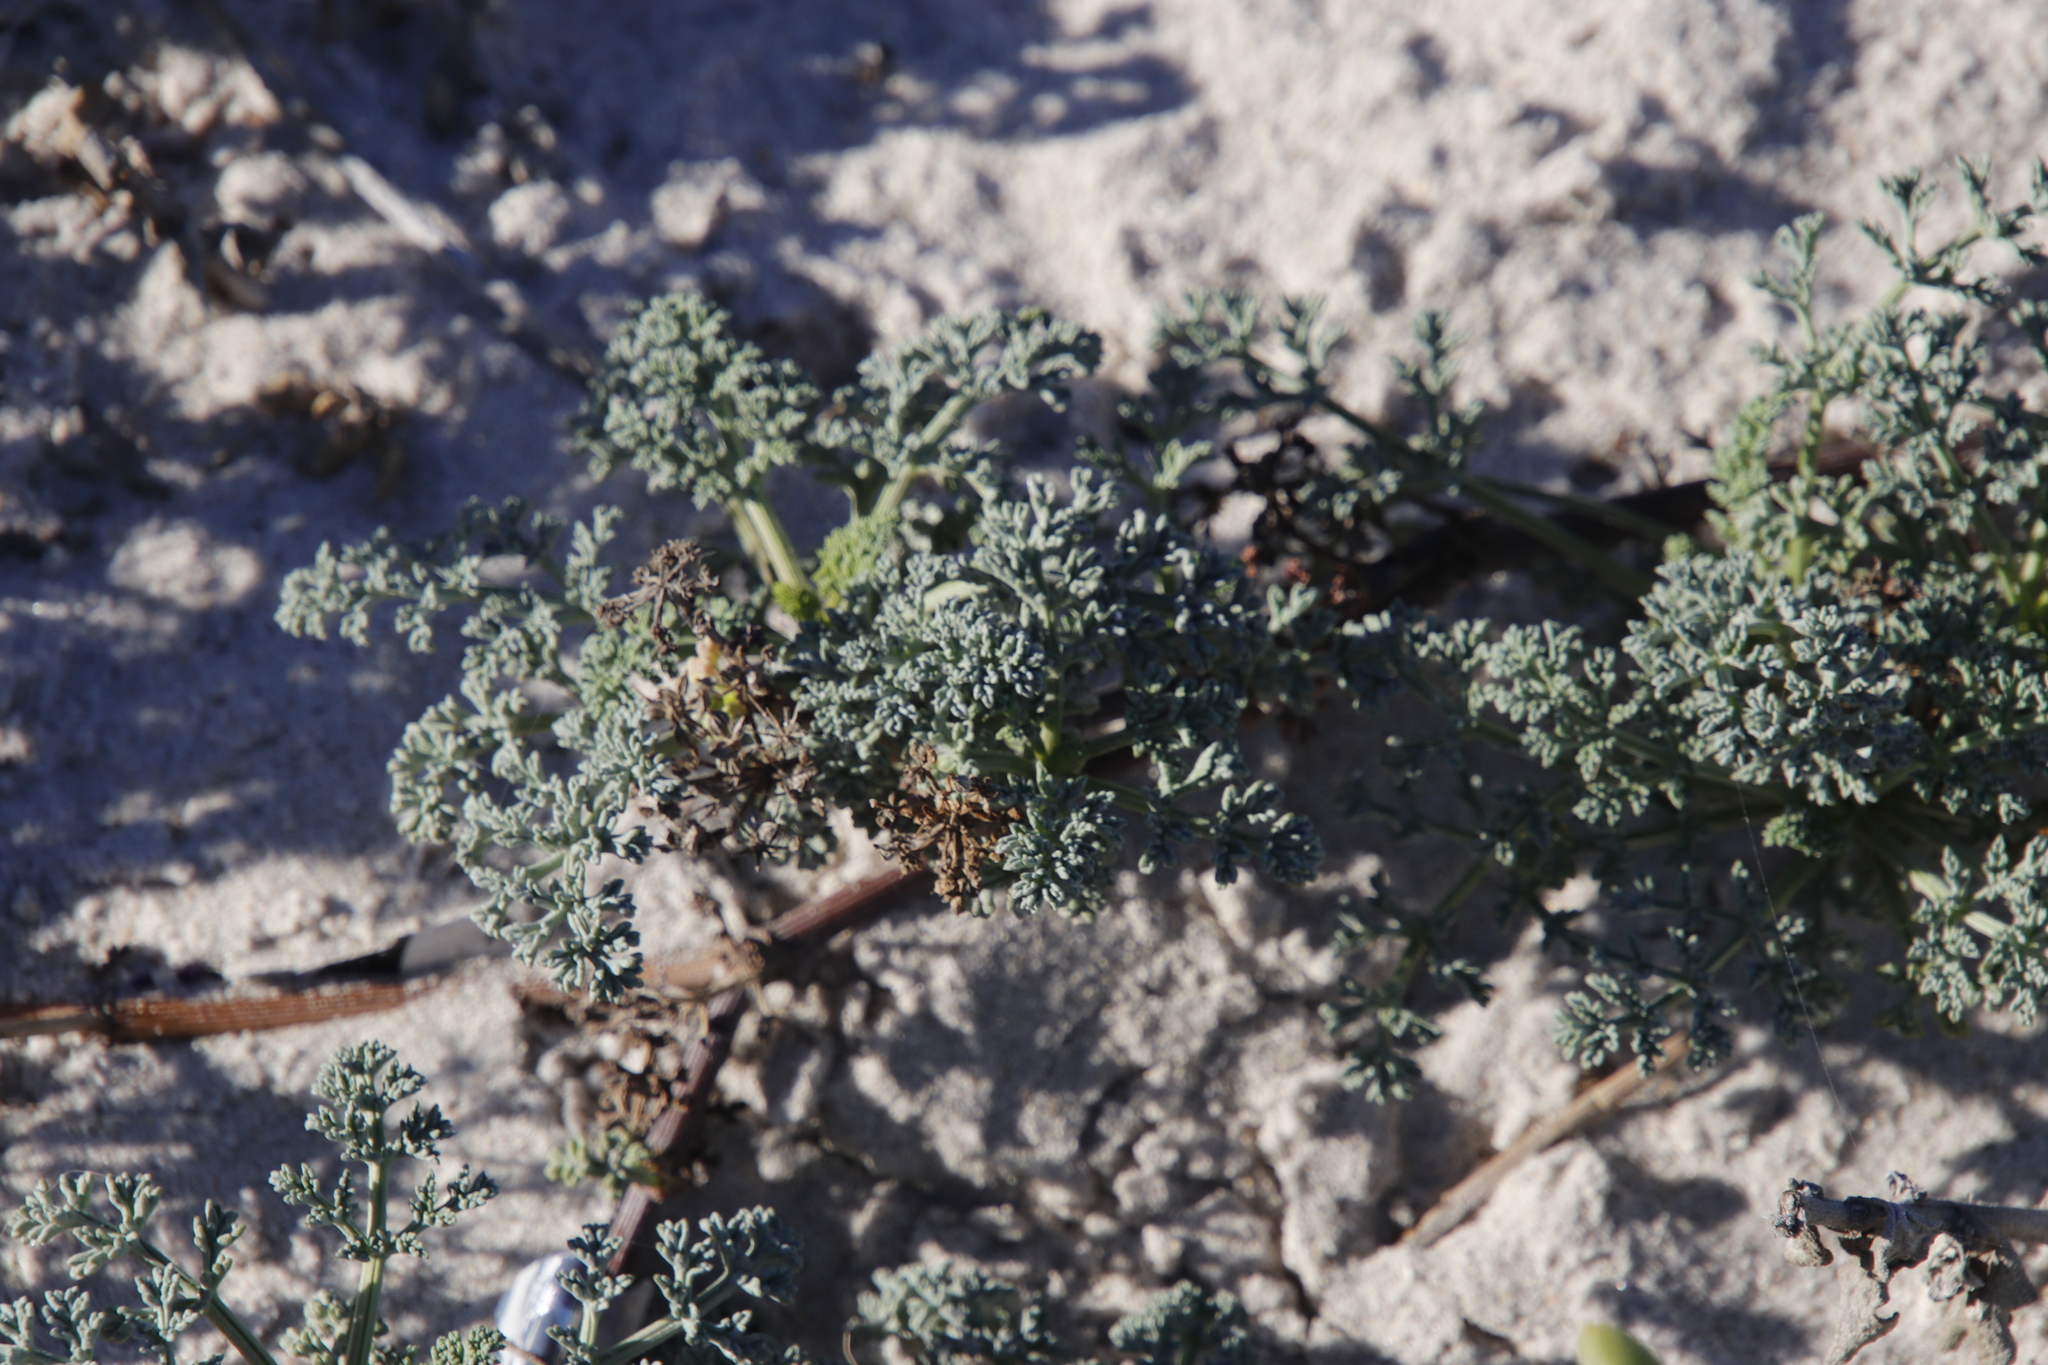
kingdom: Plantae
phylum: Tracheophyta
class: Magnoliopsida
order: Apiales
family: Apiaceae
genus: Dasispermum
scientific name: Dasispermum suffruticosum
